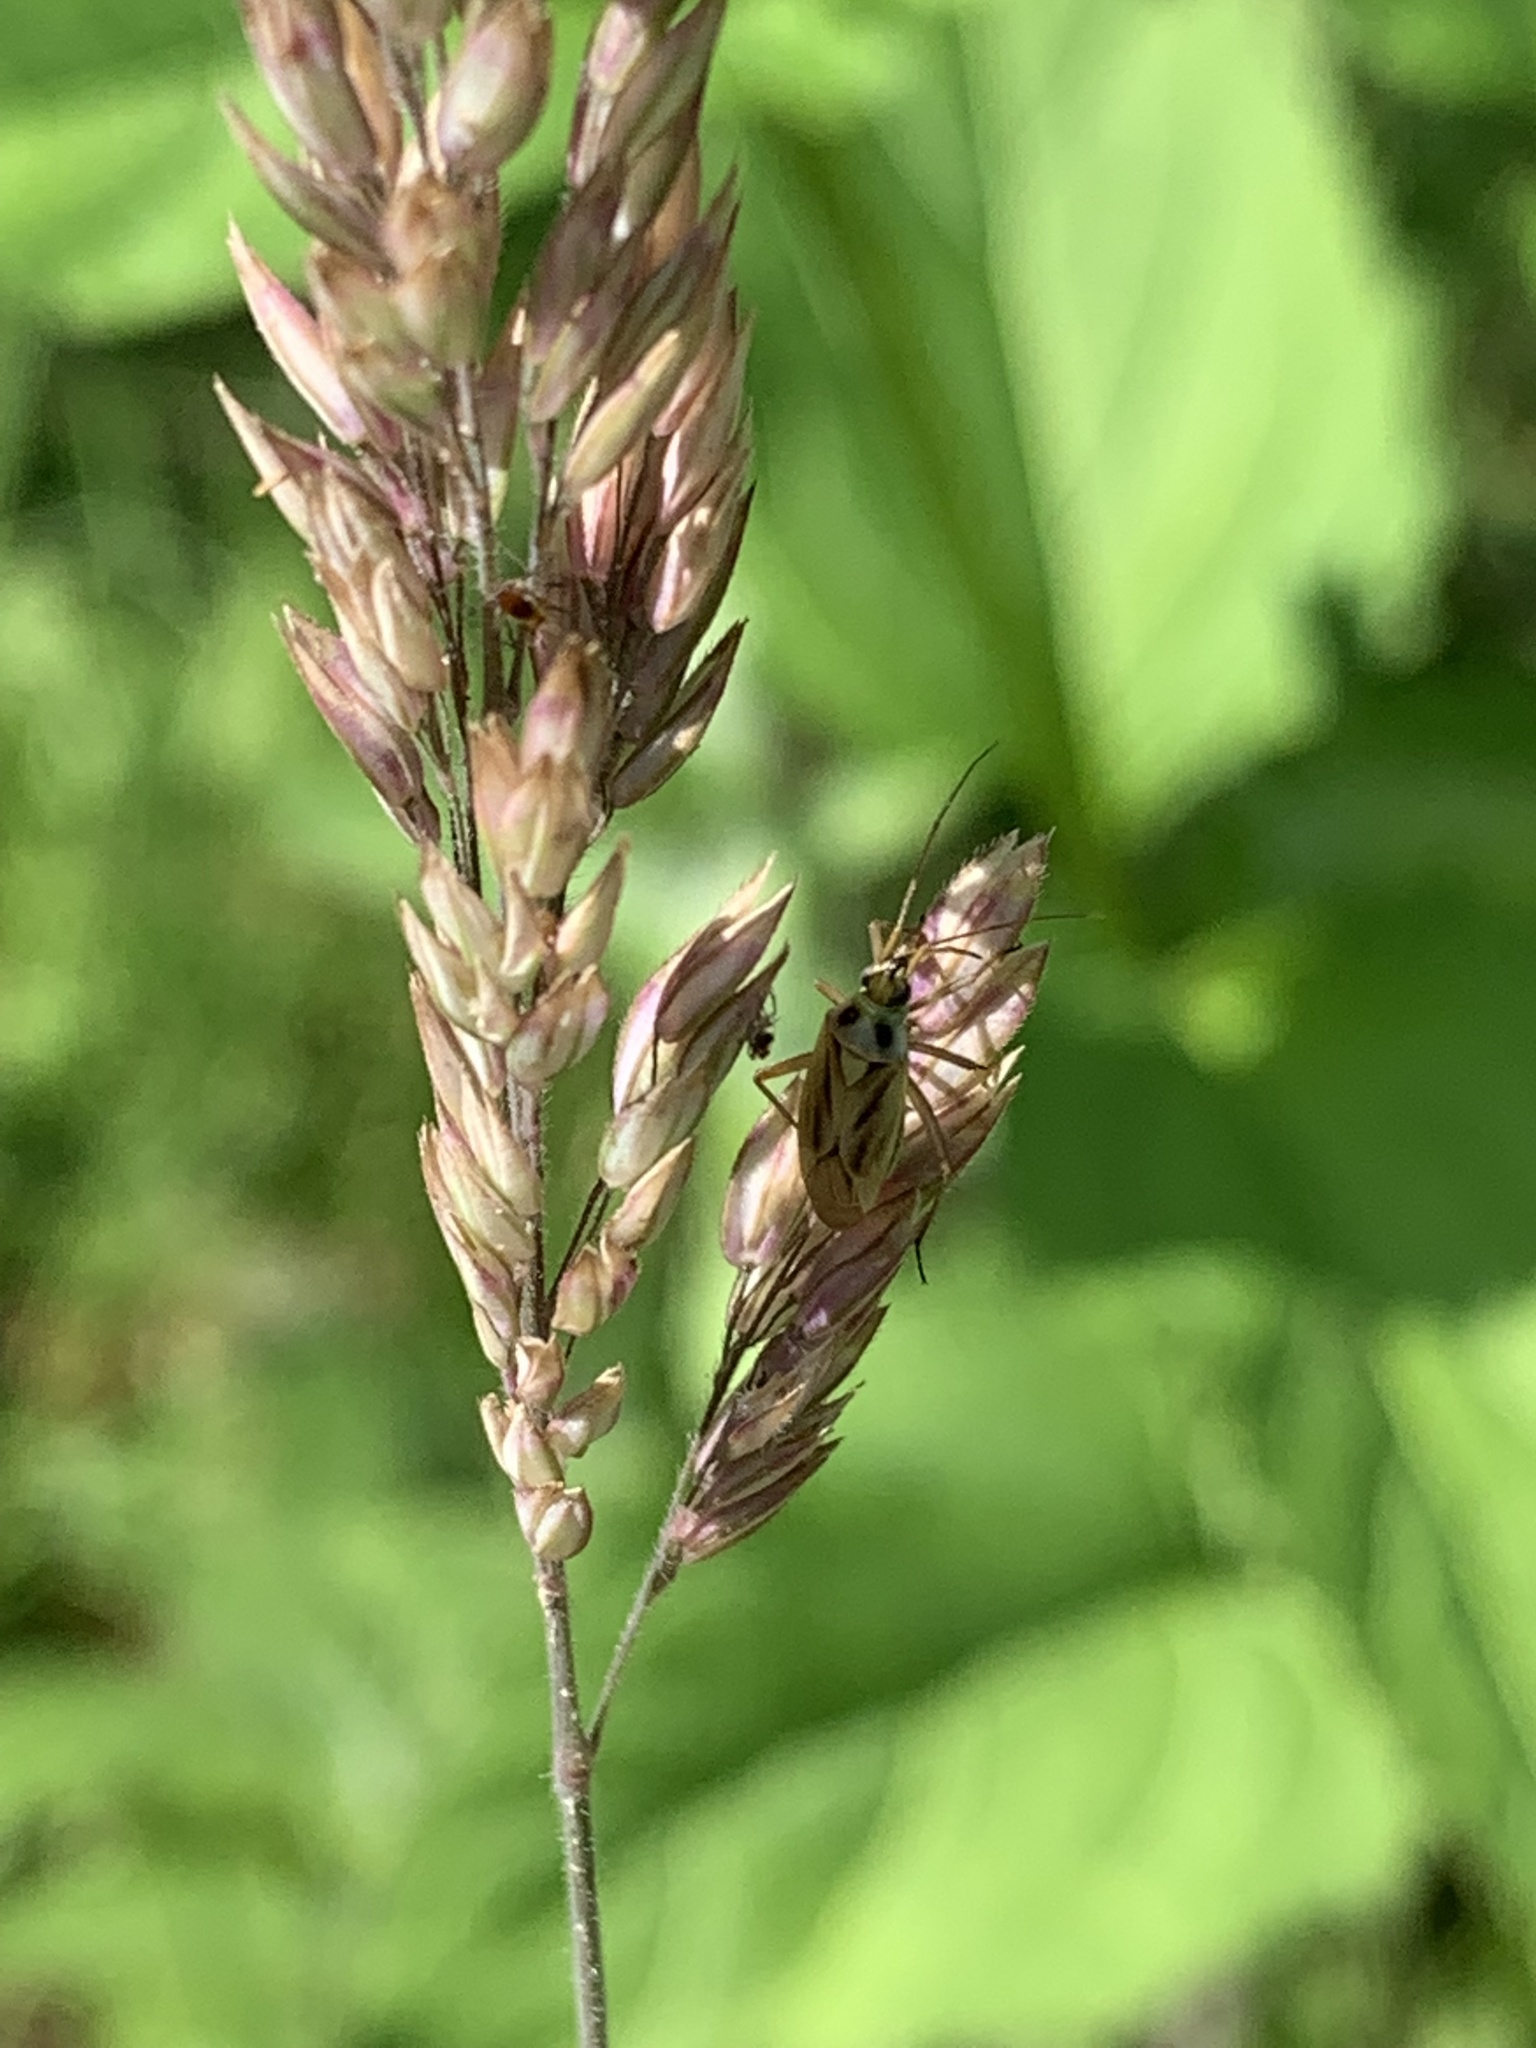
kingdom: Animalia
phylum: Arthropoda
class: Insecta
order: Hemiptera
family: Miridae
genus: Stenotus
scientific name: Stenotus binotatus
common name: Plant bug
